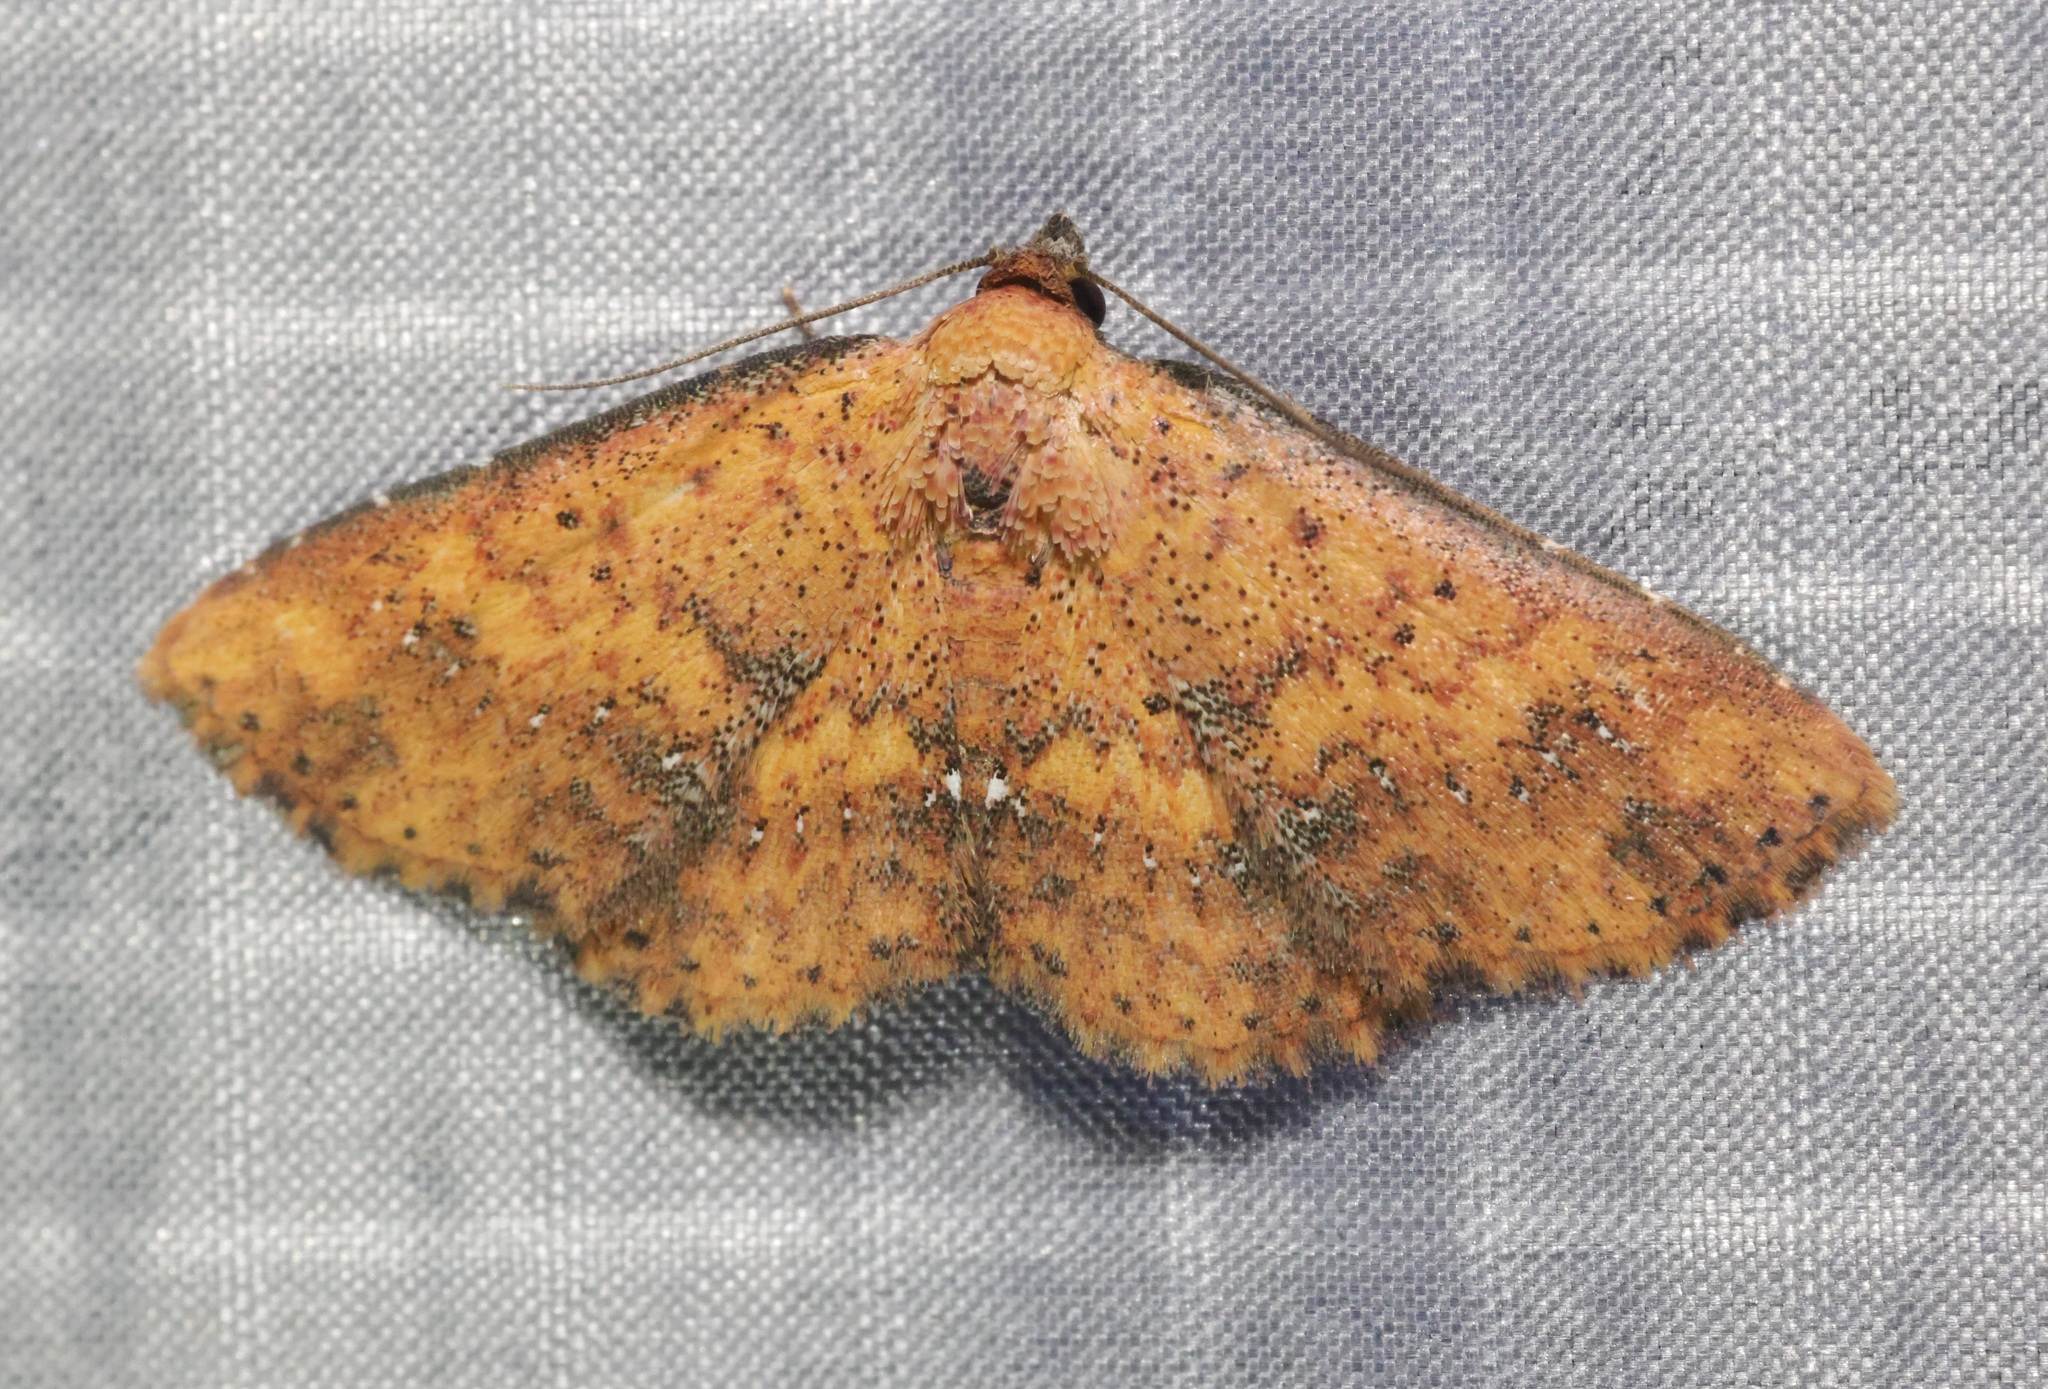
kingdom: Animalia
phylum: Arthropoda
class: Insecta
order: Lepidoptera
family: Noctuidae
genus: Cerynea
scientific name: Cerynea ustula
